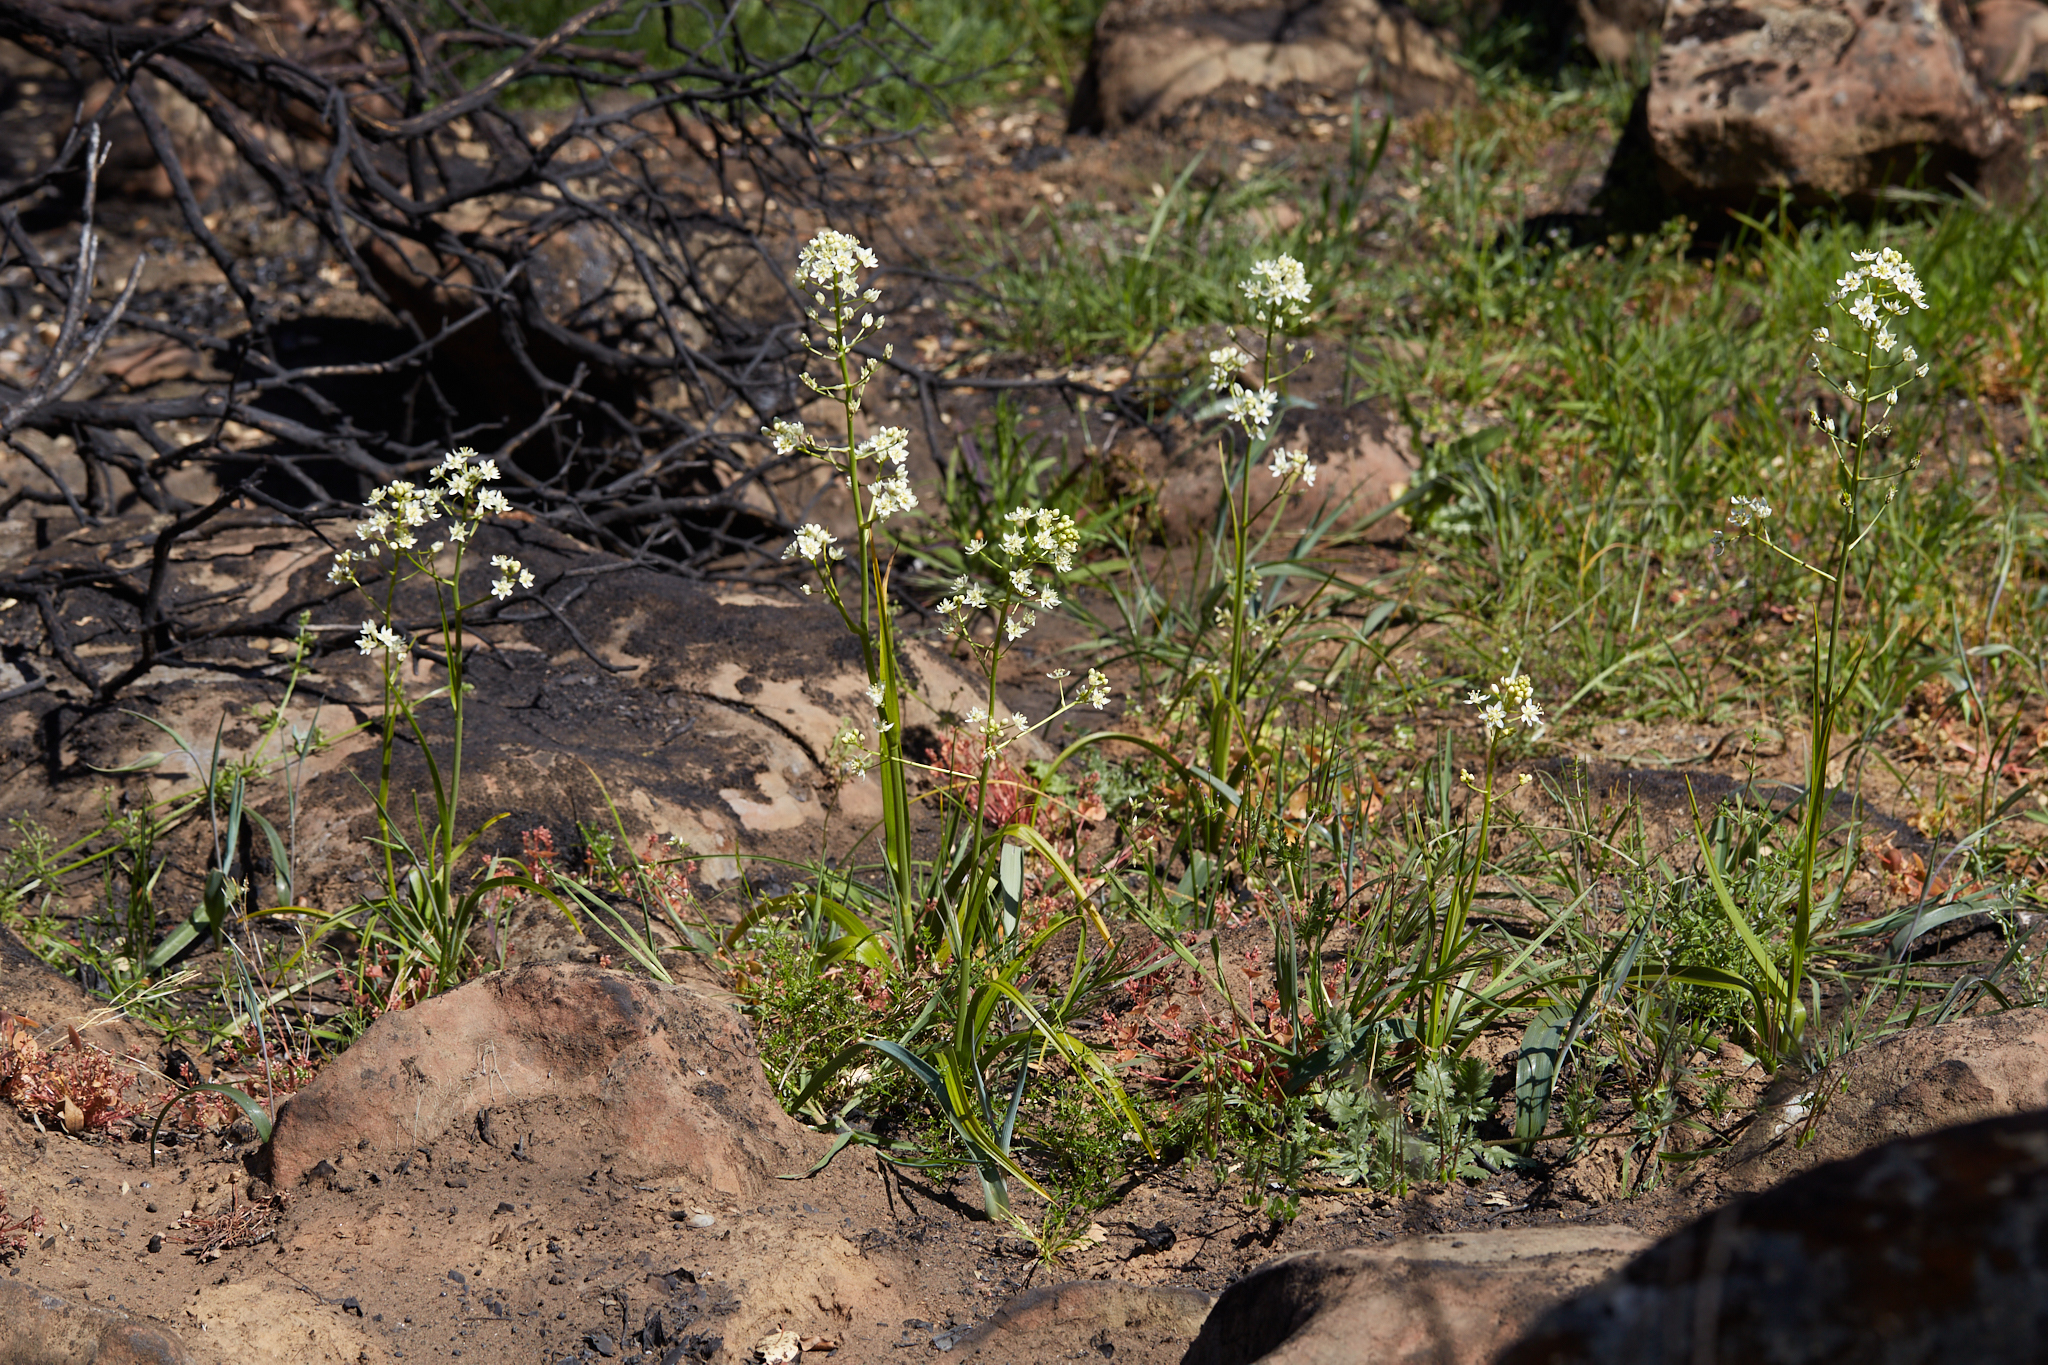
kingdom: Plantae
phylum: Tracheophyta
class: Liliopsida
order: Liliales
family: Melanthiaceae
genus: Toxicoscordion
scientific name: Toxicoscordion fremontii
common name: Fremont's death camas
